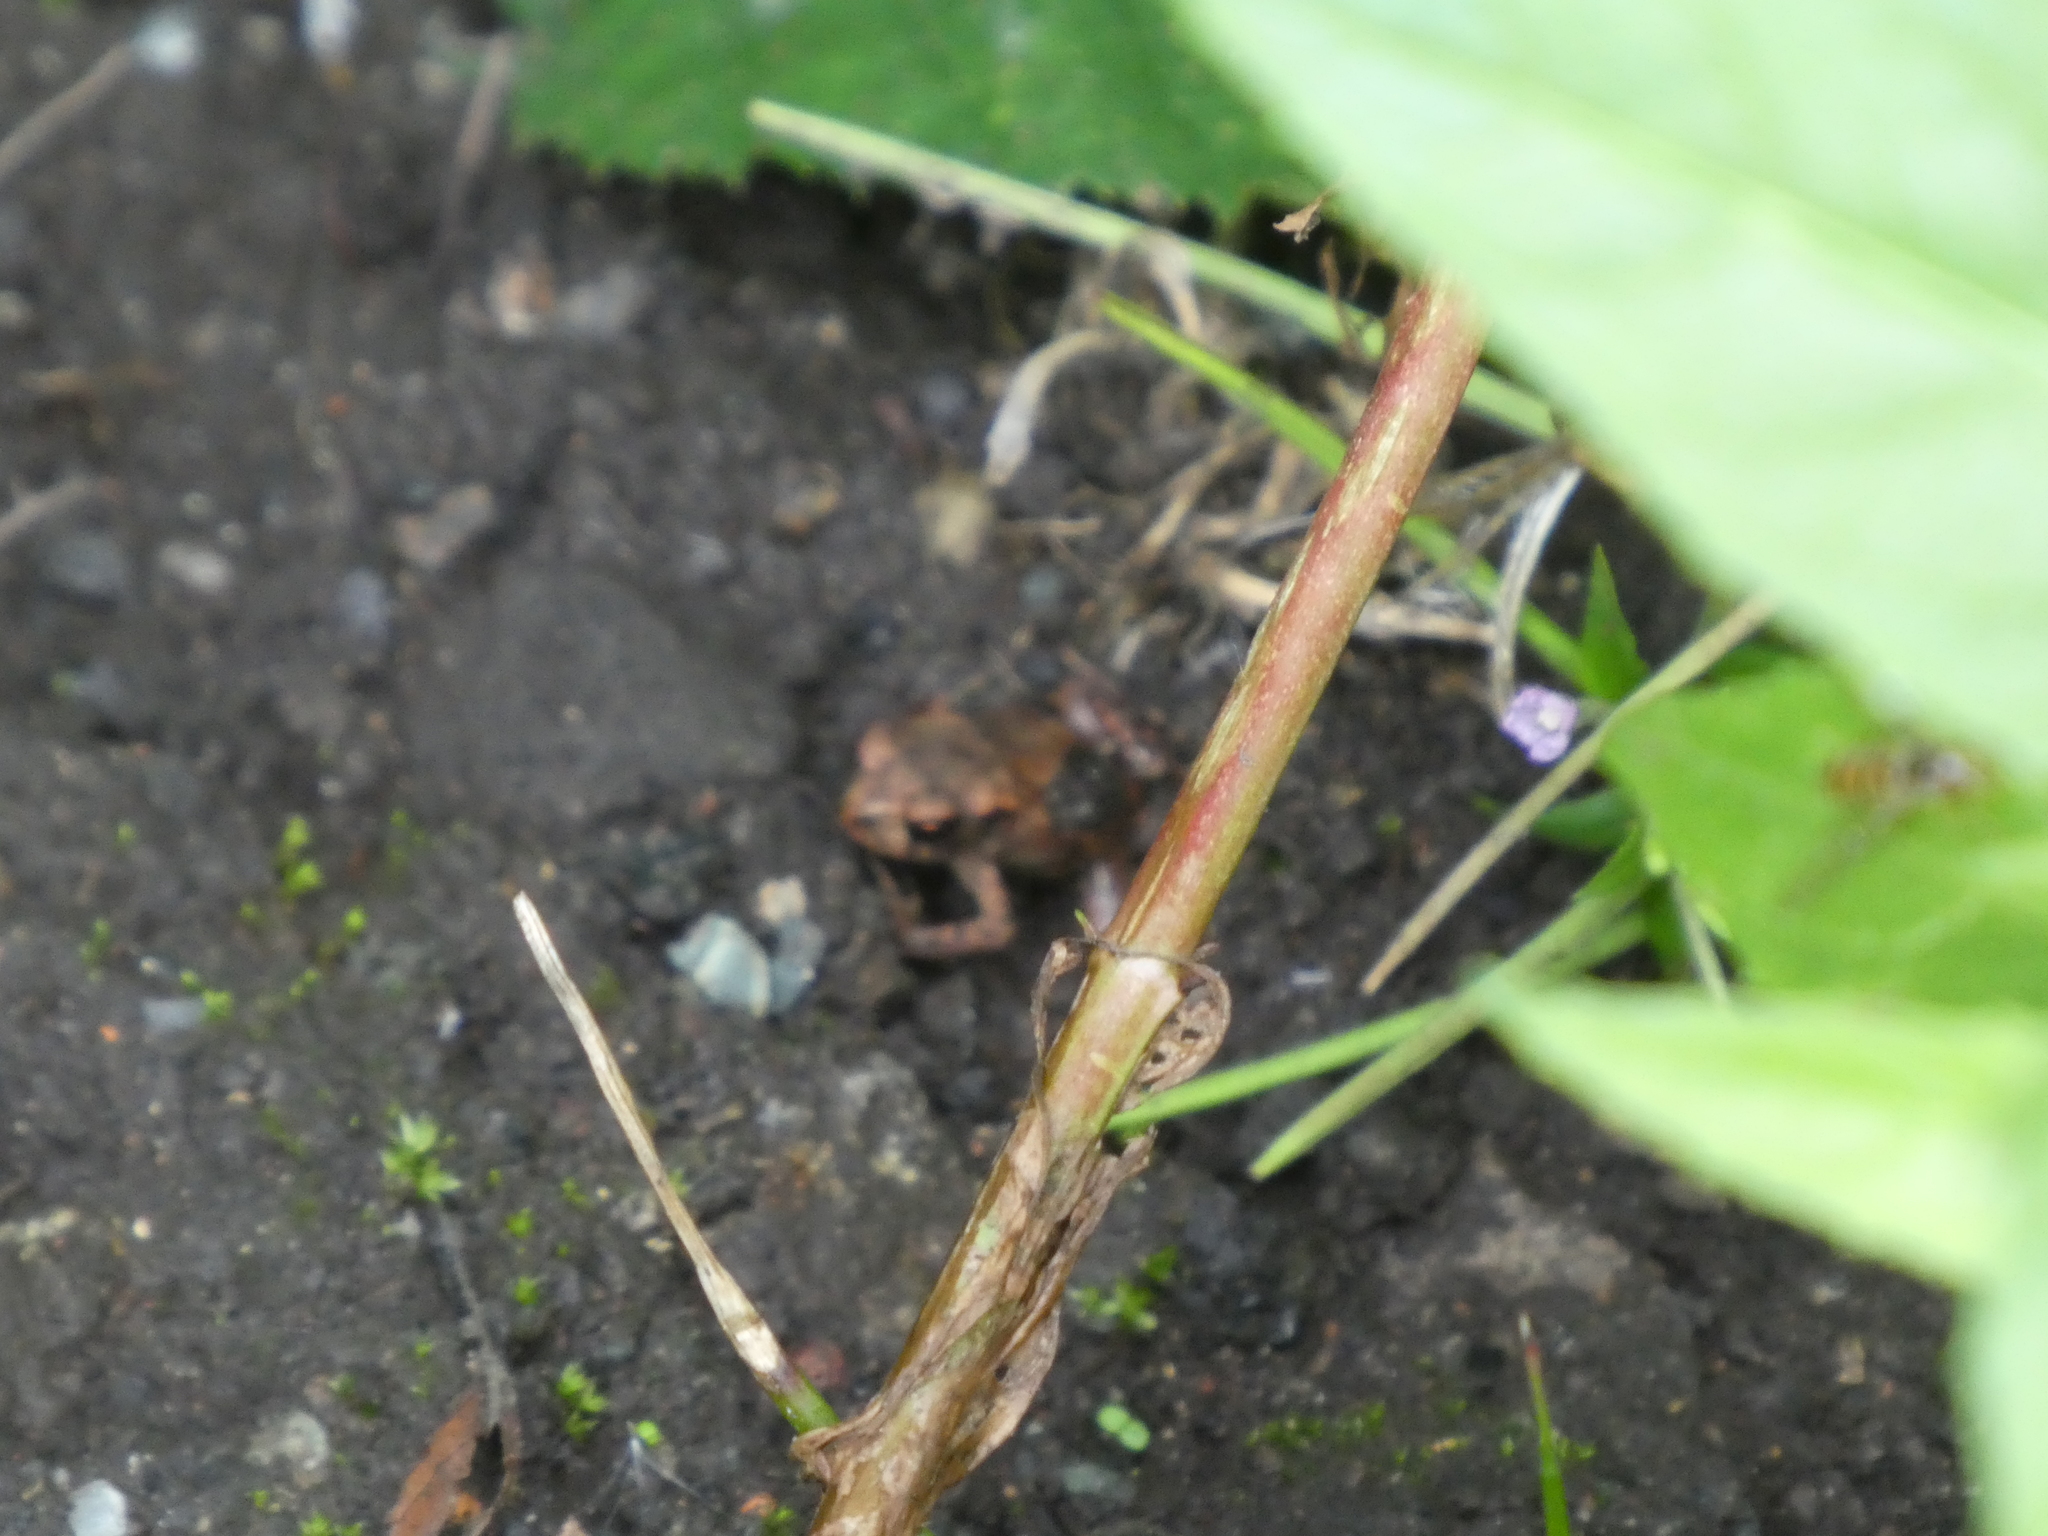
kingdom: Animalia
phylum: Chordata
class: Amphibia
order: Anura
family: Bufonidae
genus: Bufo
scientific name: Bufo bufo
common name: Common toad
